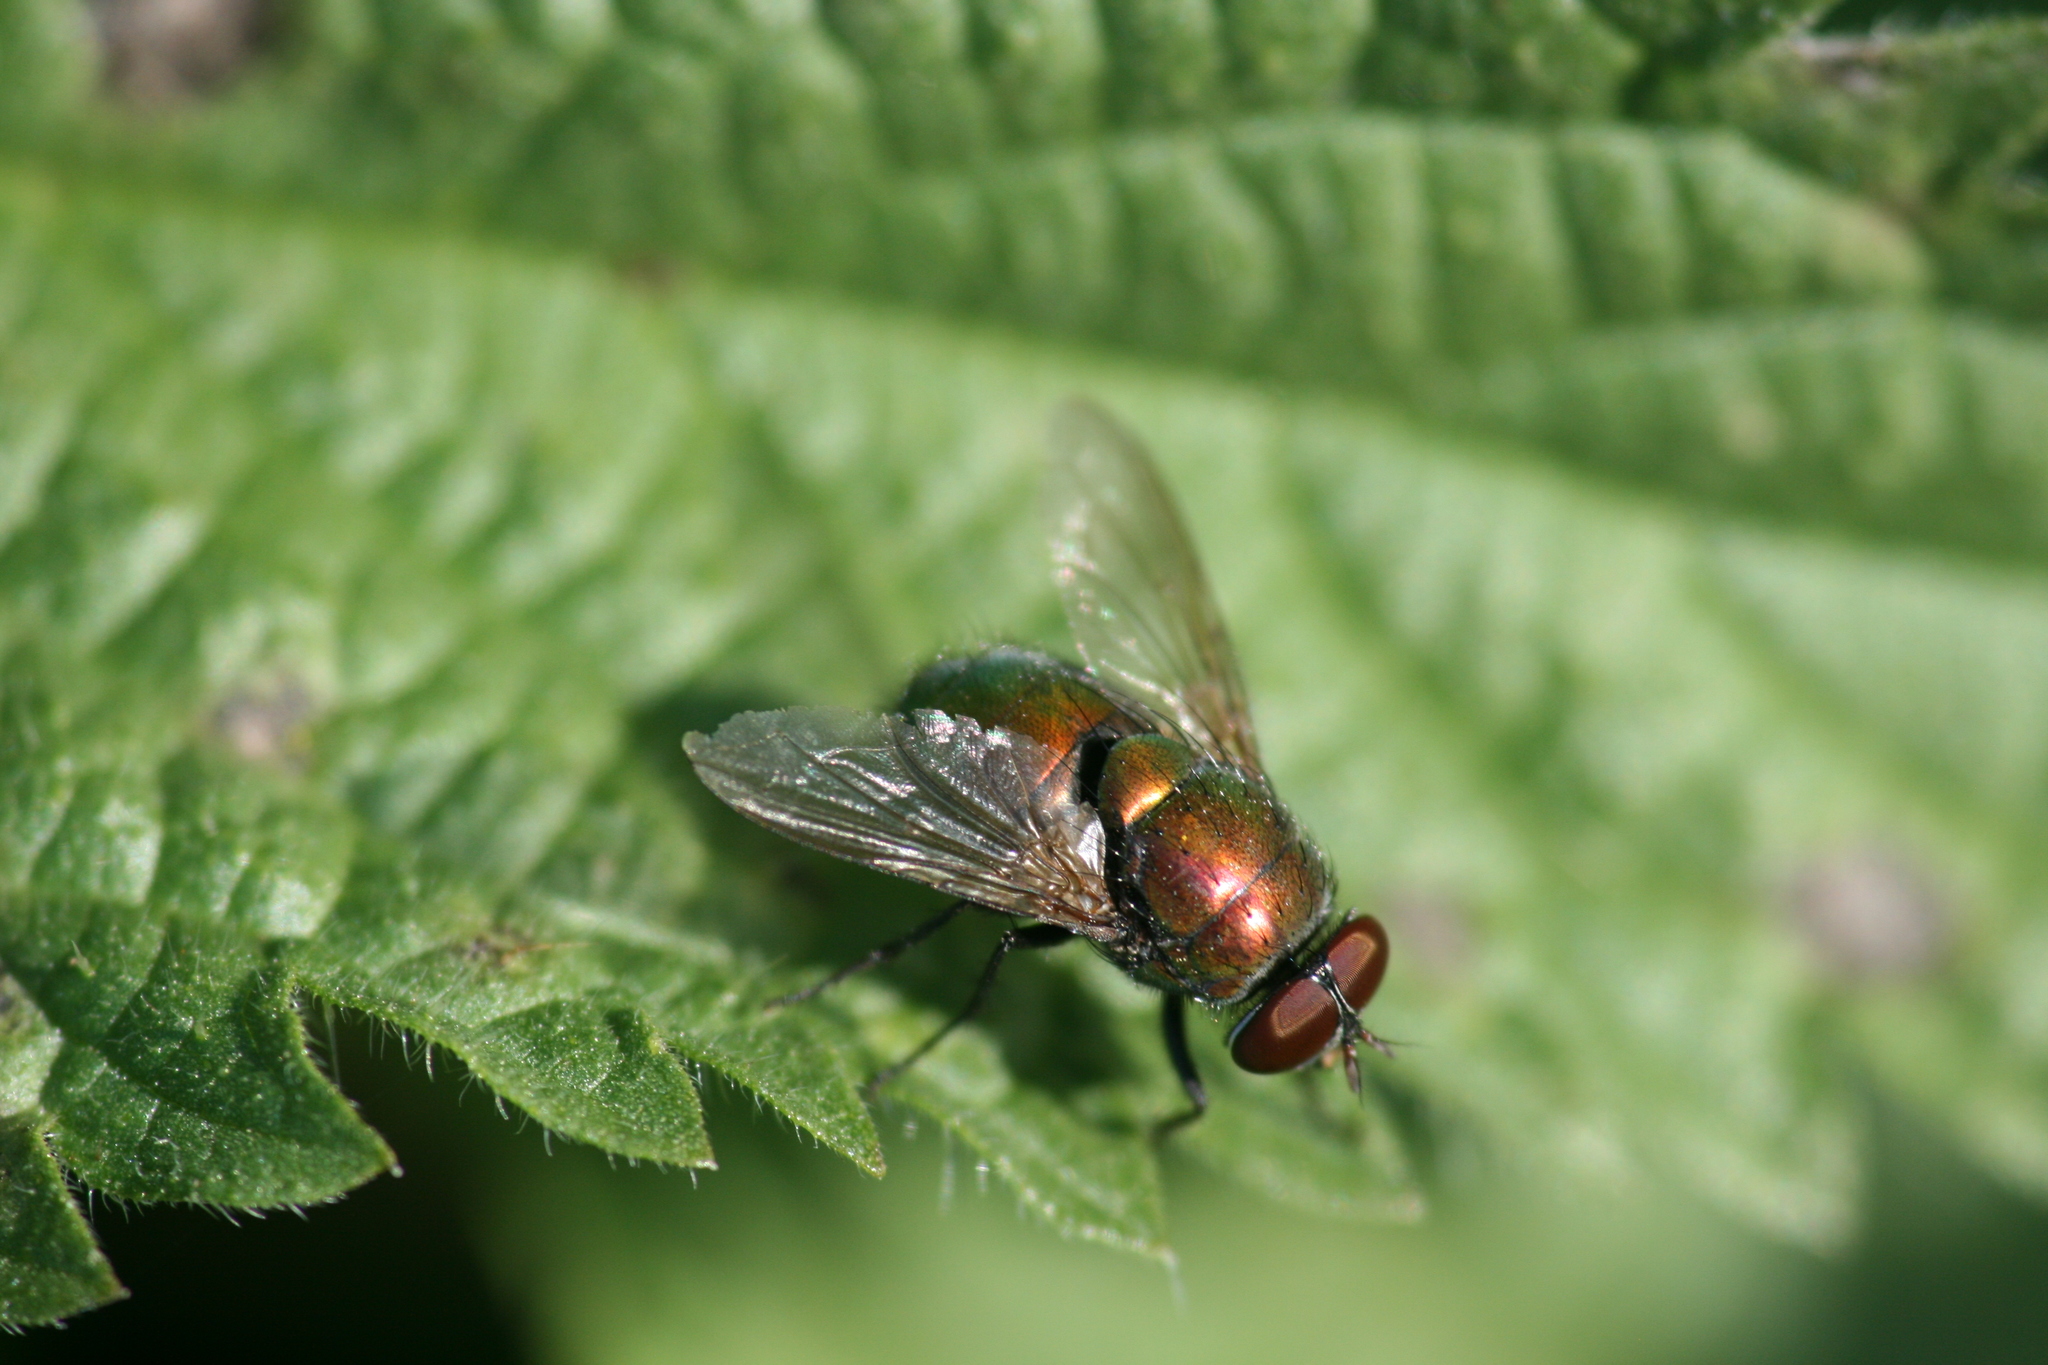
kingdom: Animalia
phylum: Arthropoda
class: Insecta
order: Diptera
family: Calliphoridae
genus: Lucilia
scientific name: Lucilia
